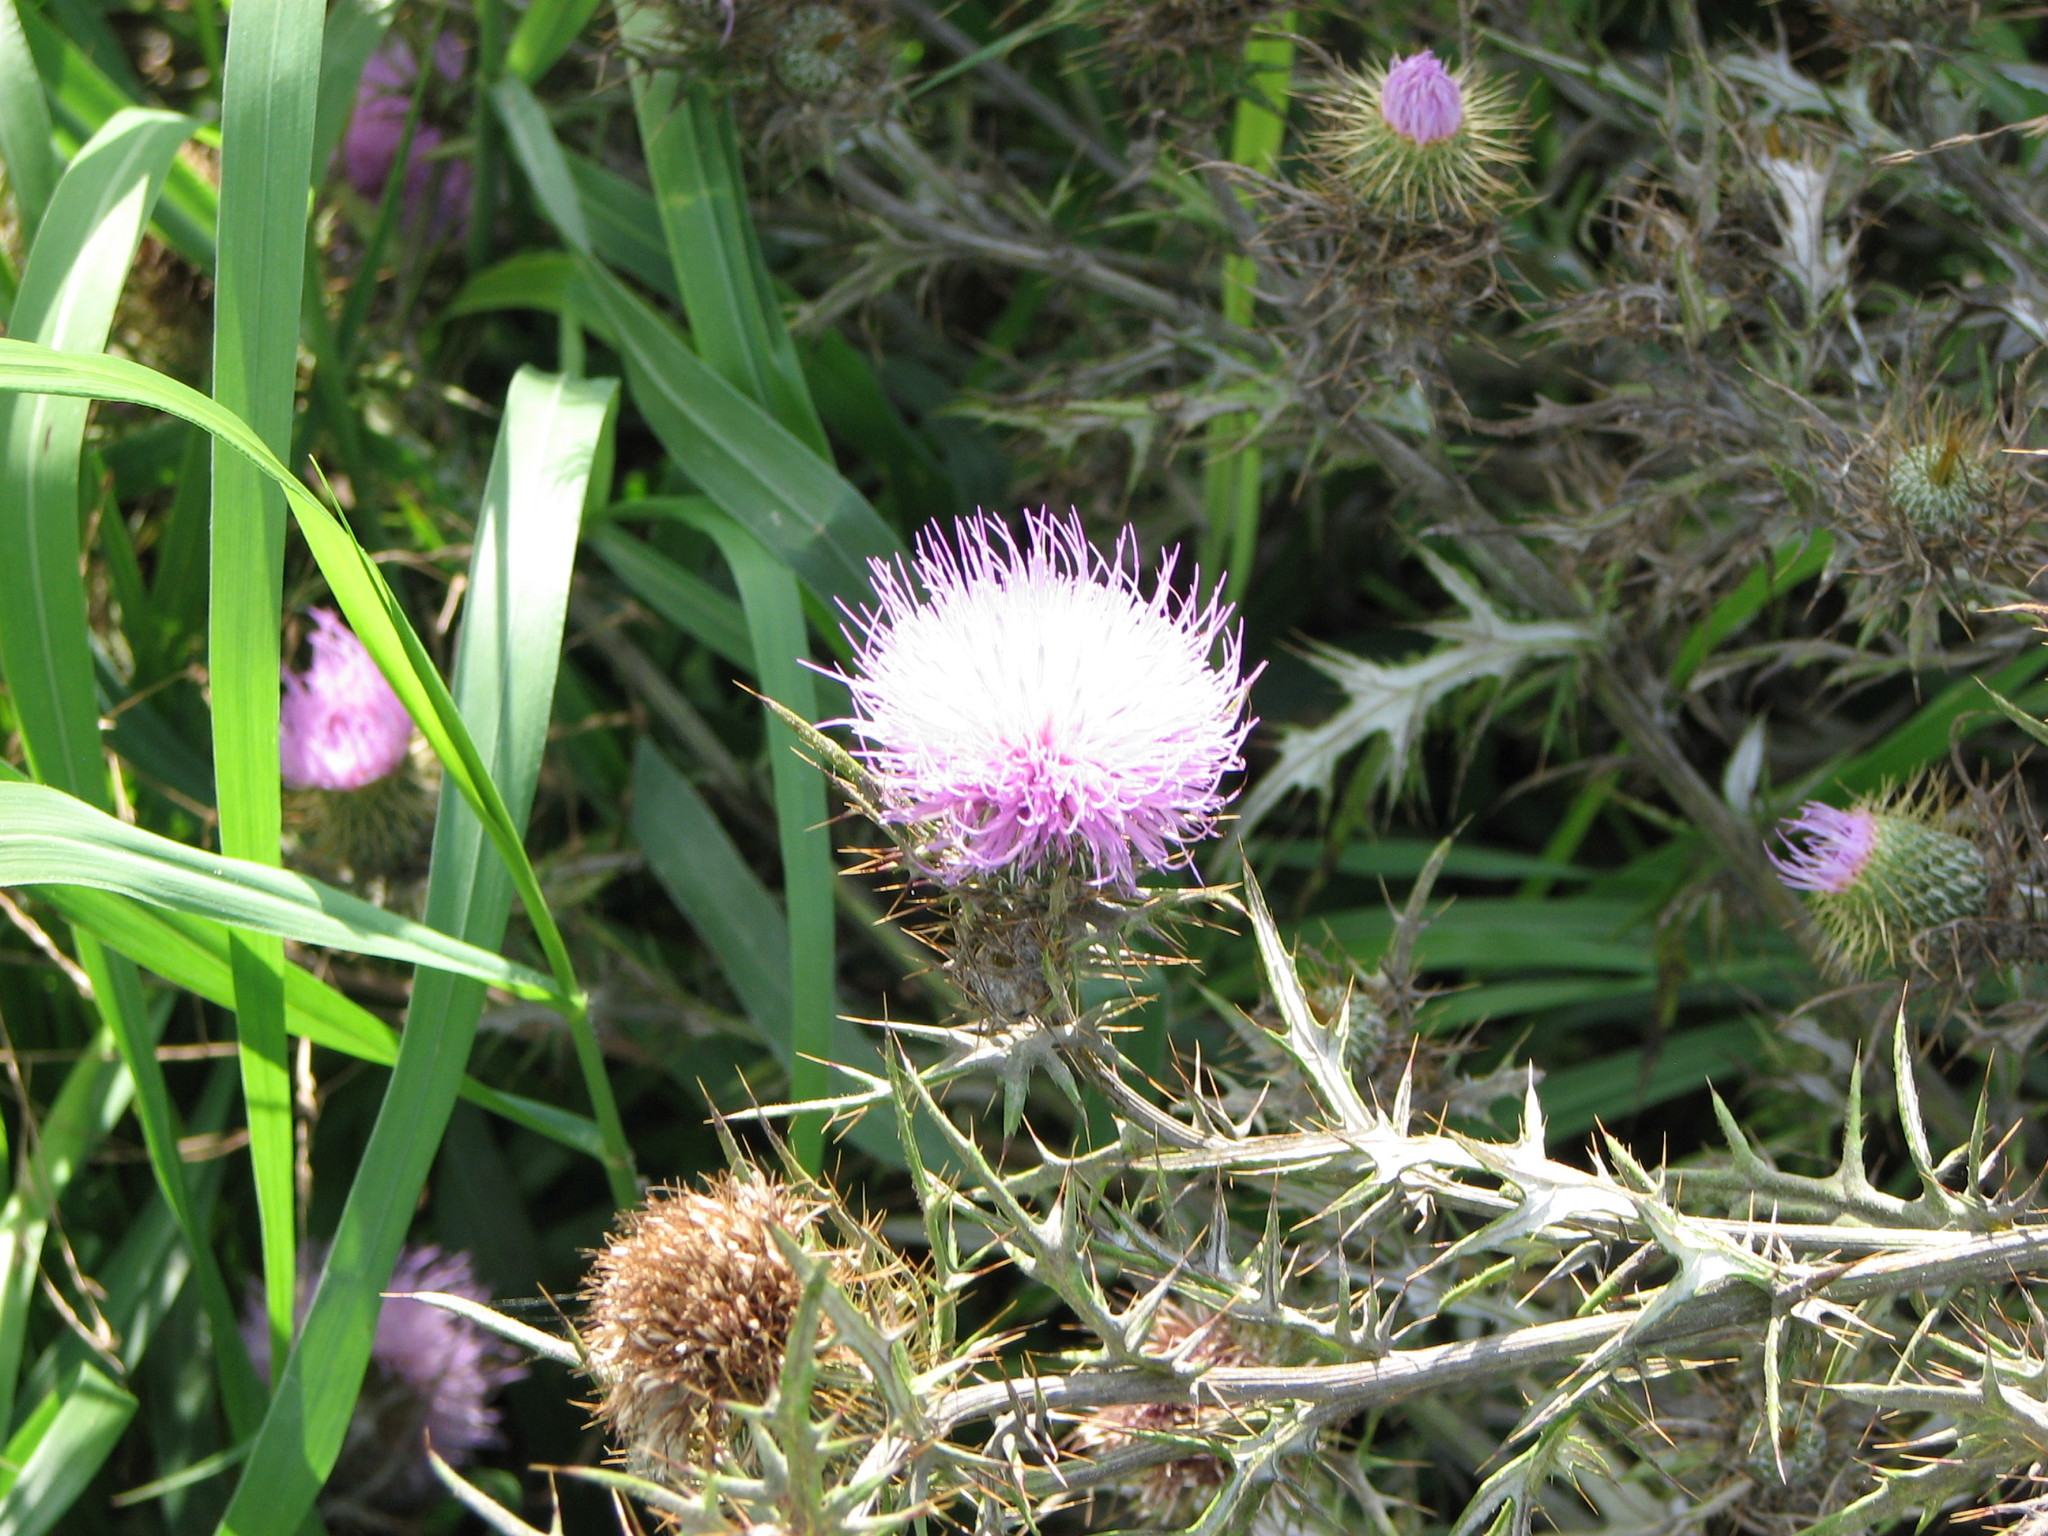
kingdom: Plantae
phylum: Tracheophyta
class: Magnoliopsida
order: Asterales
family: Asteraceae
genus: Cirsium
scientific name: Cirsium discolor
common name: Field thistle
